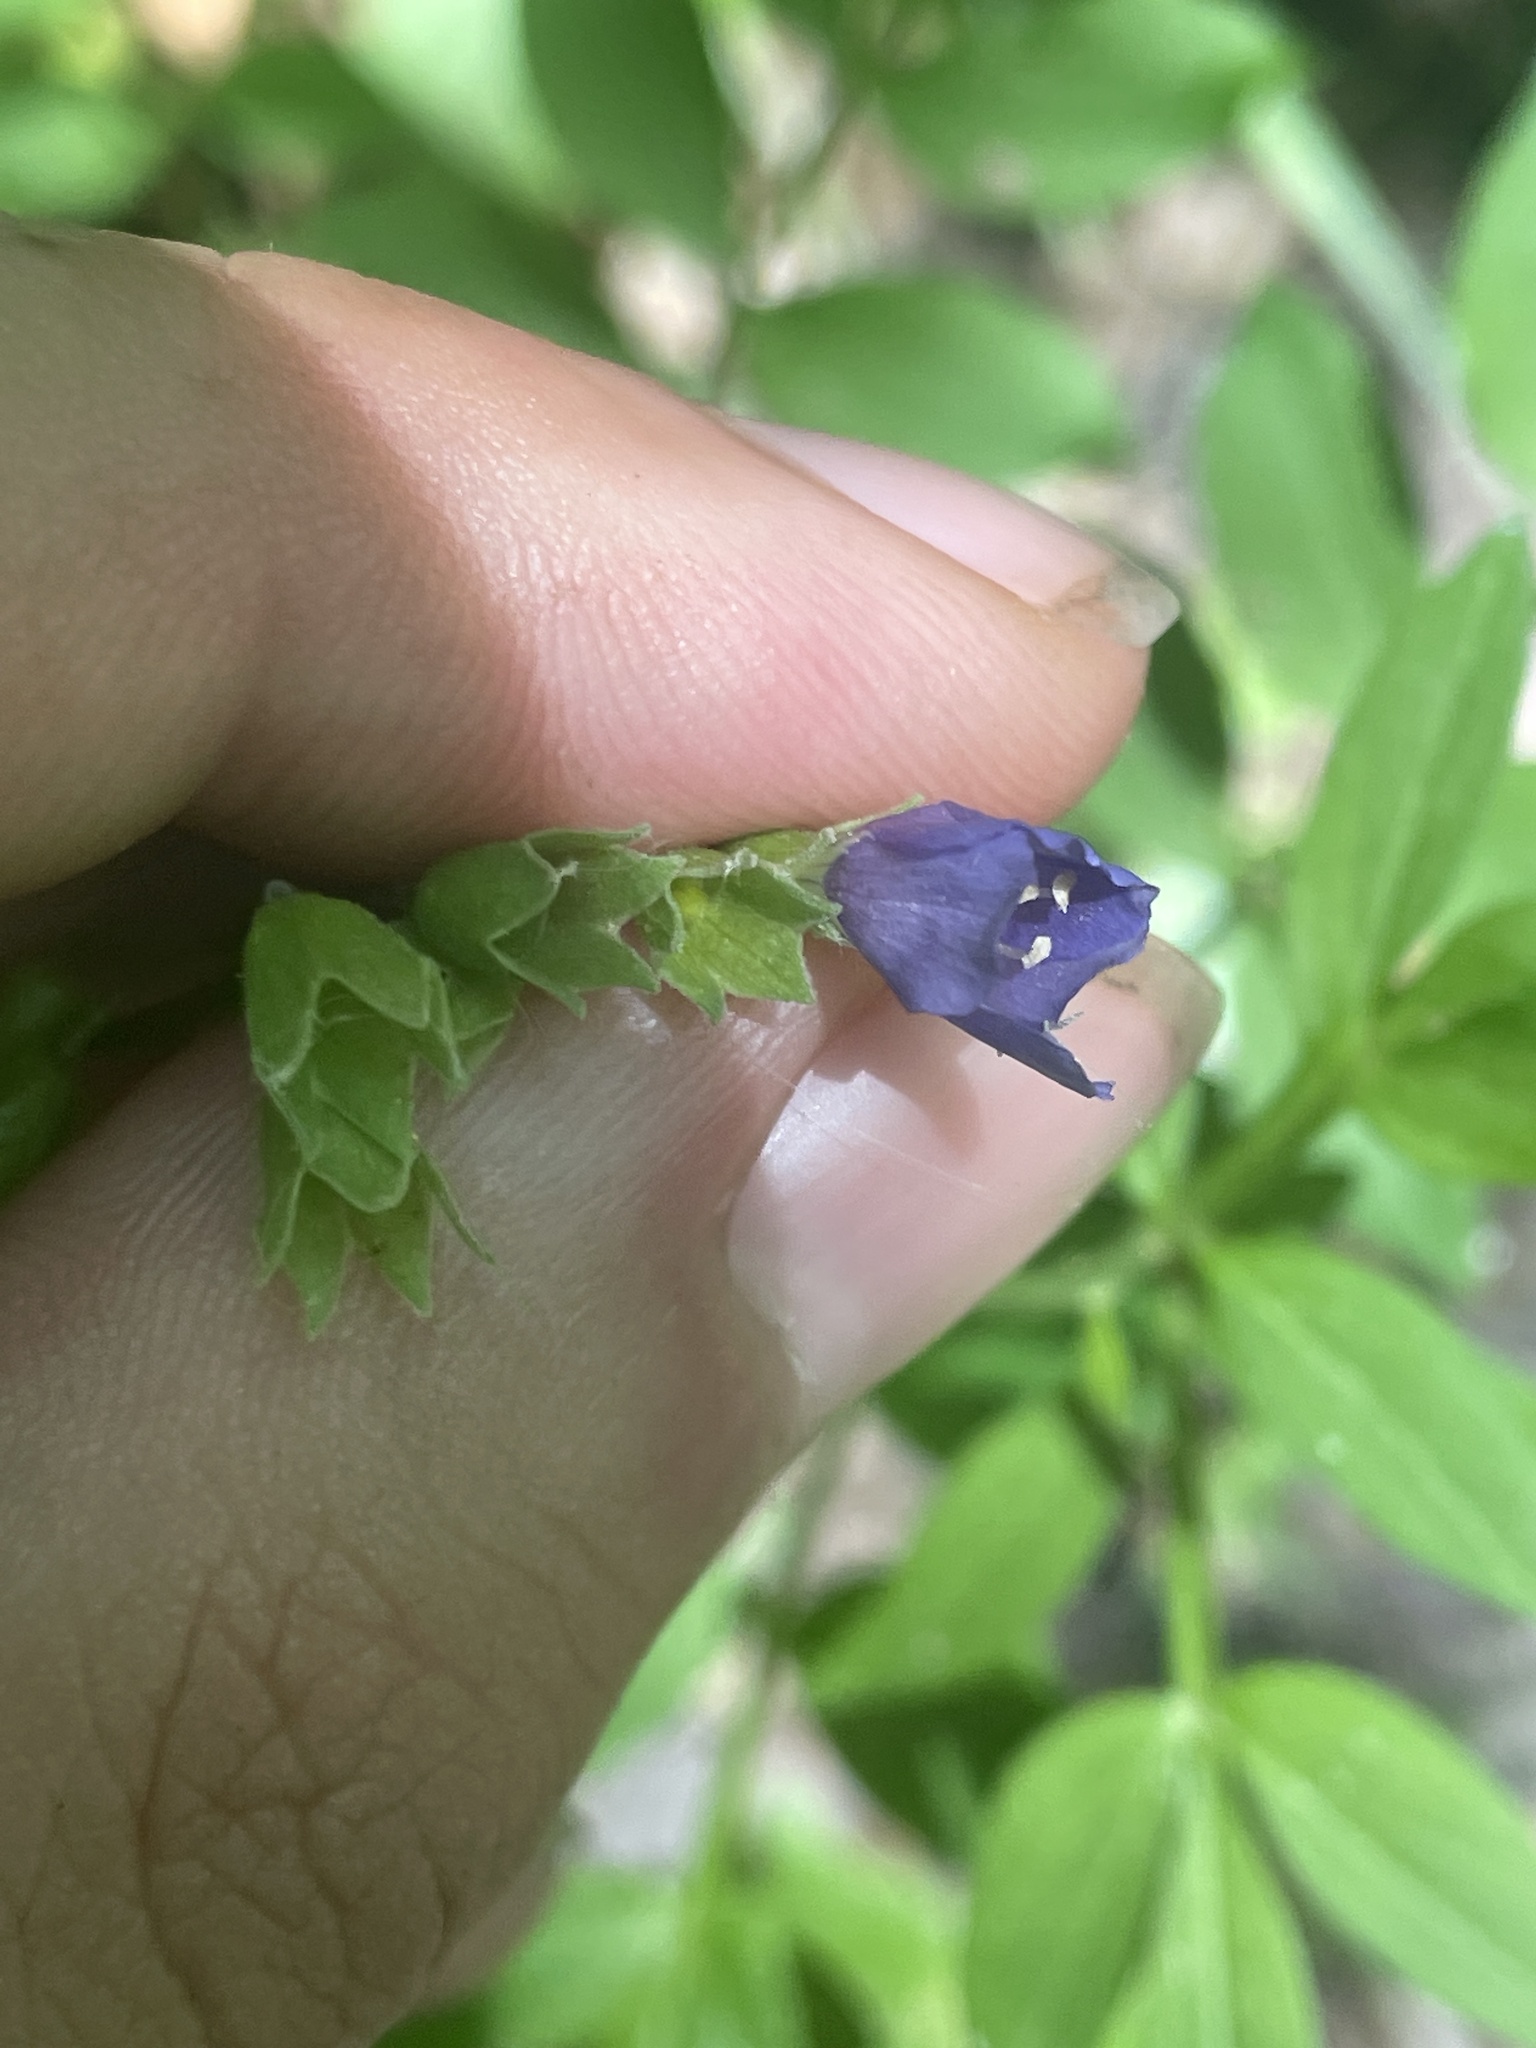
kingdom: Plantae
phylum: Tracheophyta
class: Magnoliopsida
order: Ericales
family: Polemoniaceae
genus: Polemonium
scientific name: Polemonium reptans
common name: Creeping jacob's-ladder
